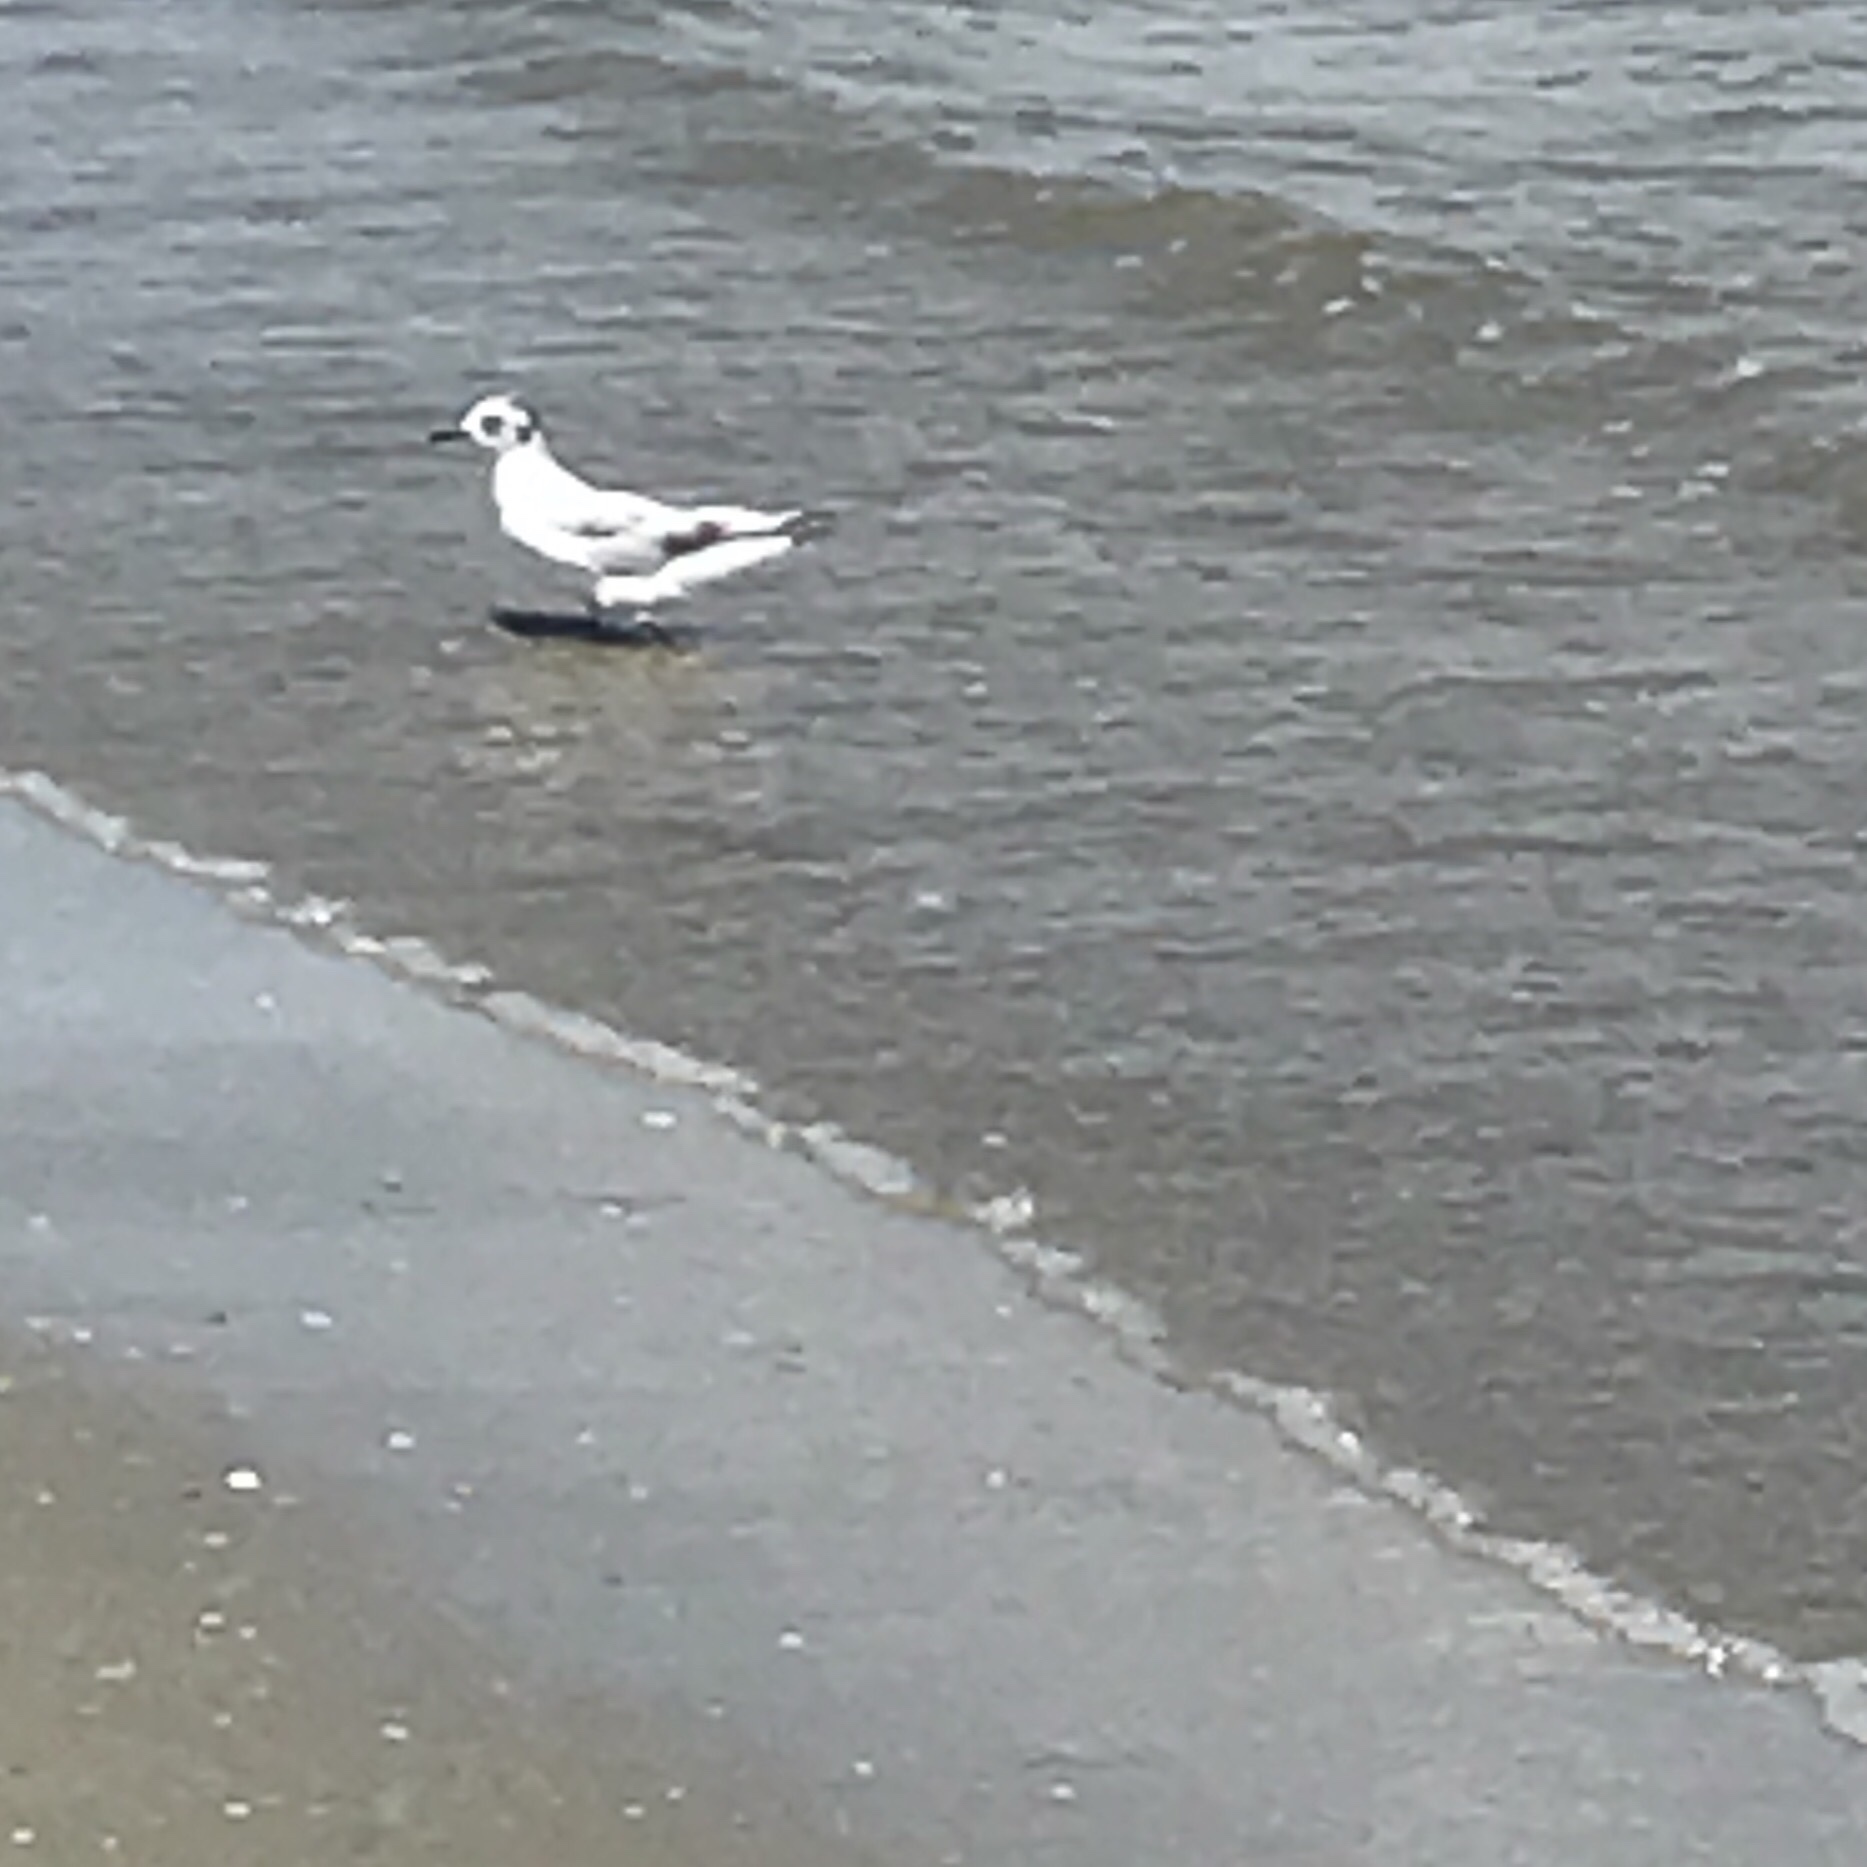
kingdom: Animalia
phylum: Chordata
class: Aves
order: Charadriiformes
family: Laridae
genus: Hydrocoloeus
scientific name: Hydrocoloeus minutus
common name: Little gull
